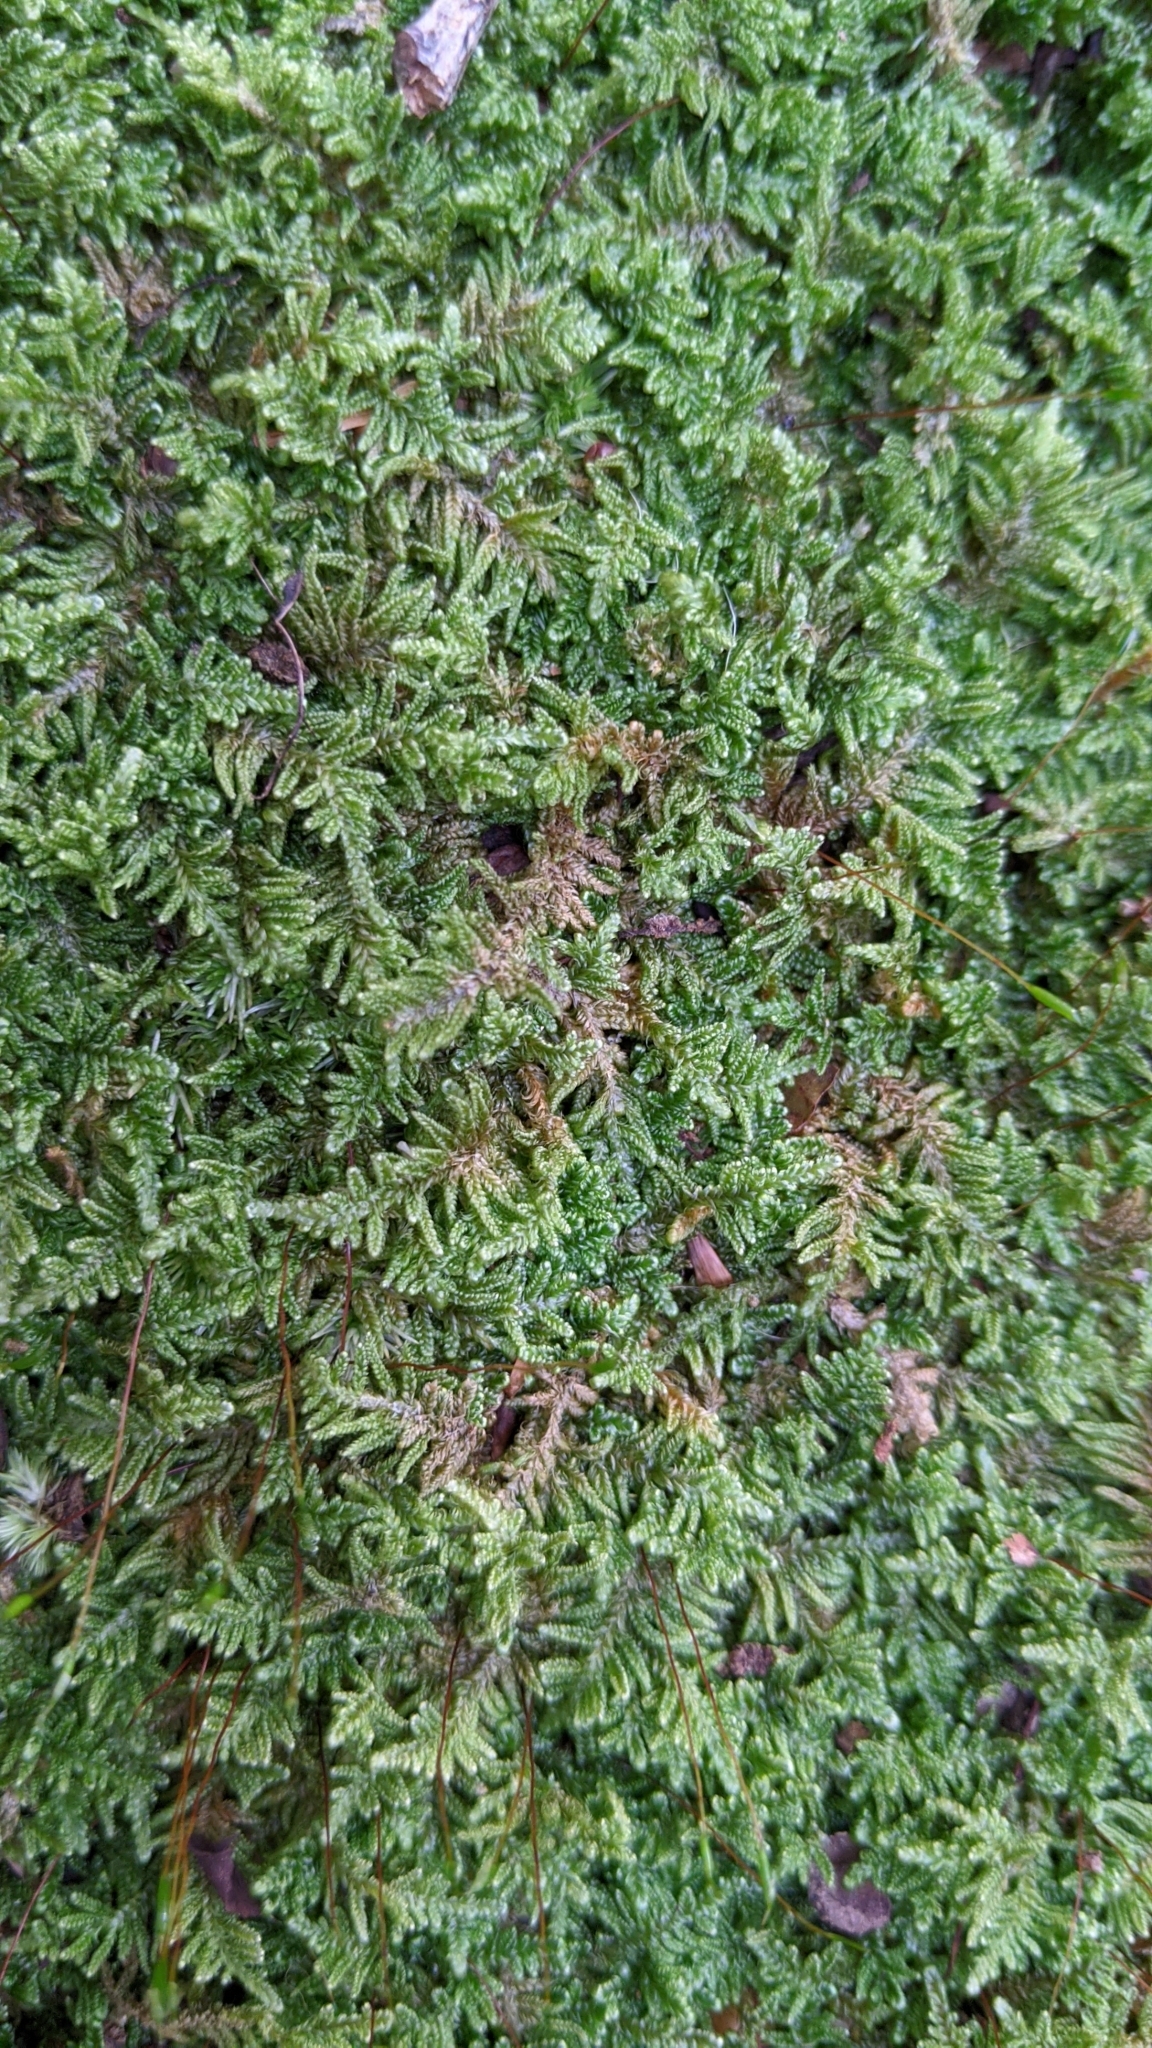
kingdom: Plantae
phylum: Bryophyta
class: Bryopsida
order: Hypnales
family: Callicladiaceae
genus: Callicladium
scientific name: Callicladium imponens
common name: Brocade moss
